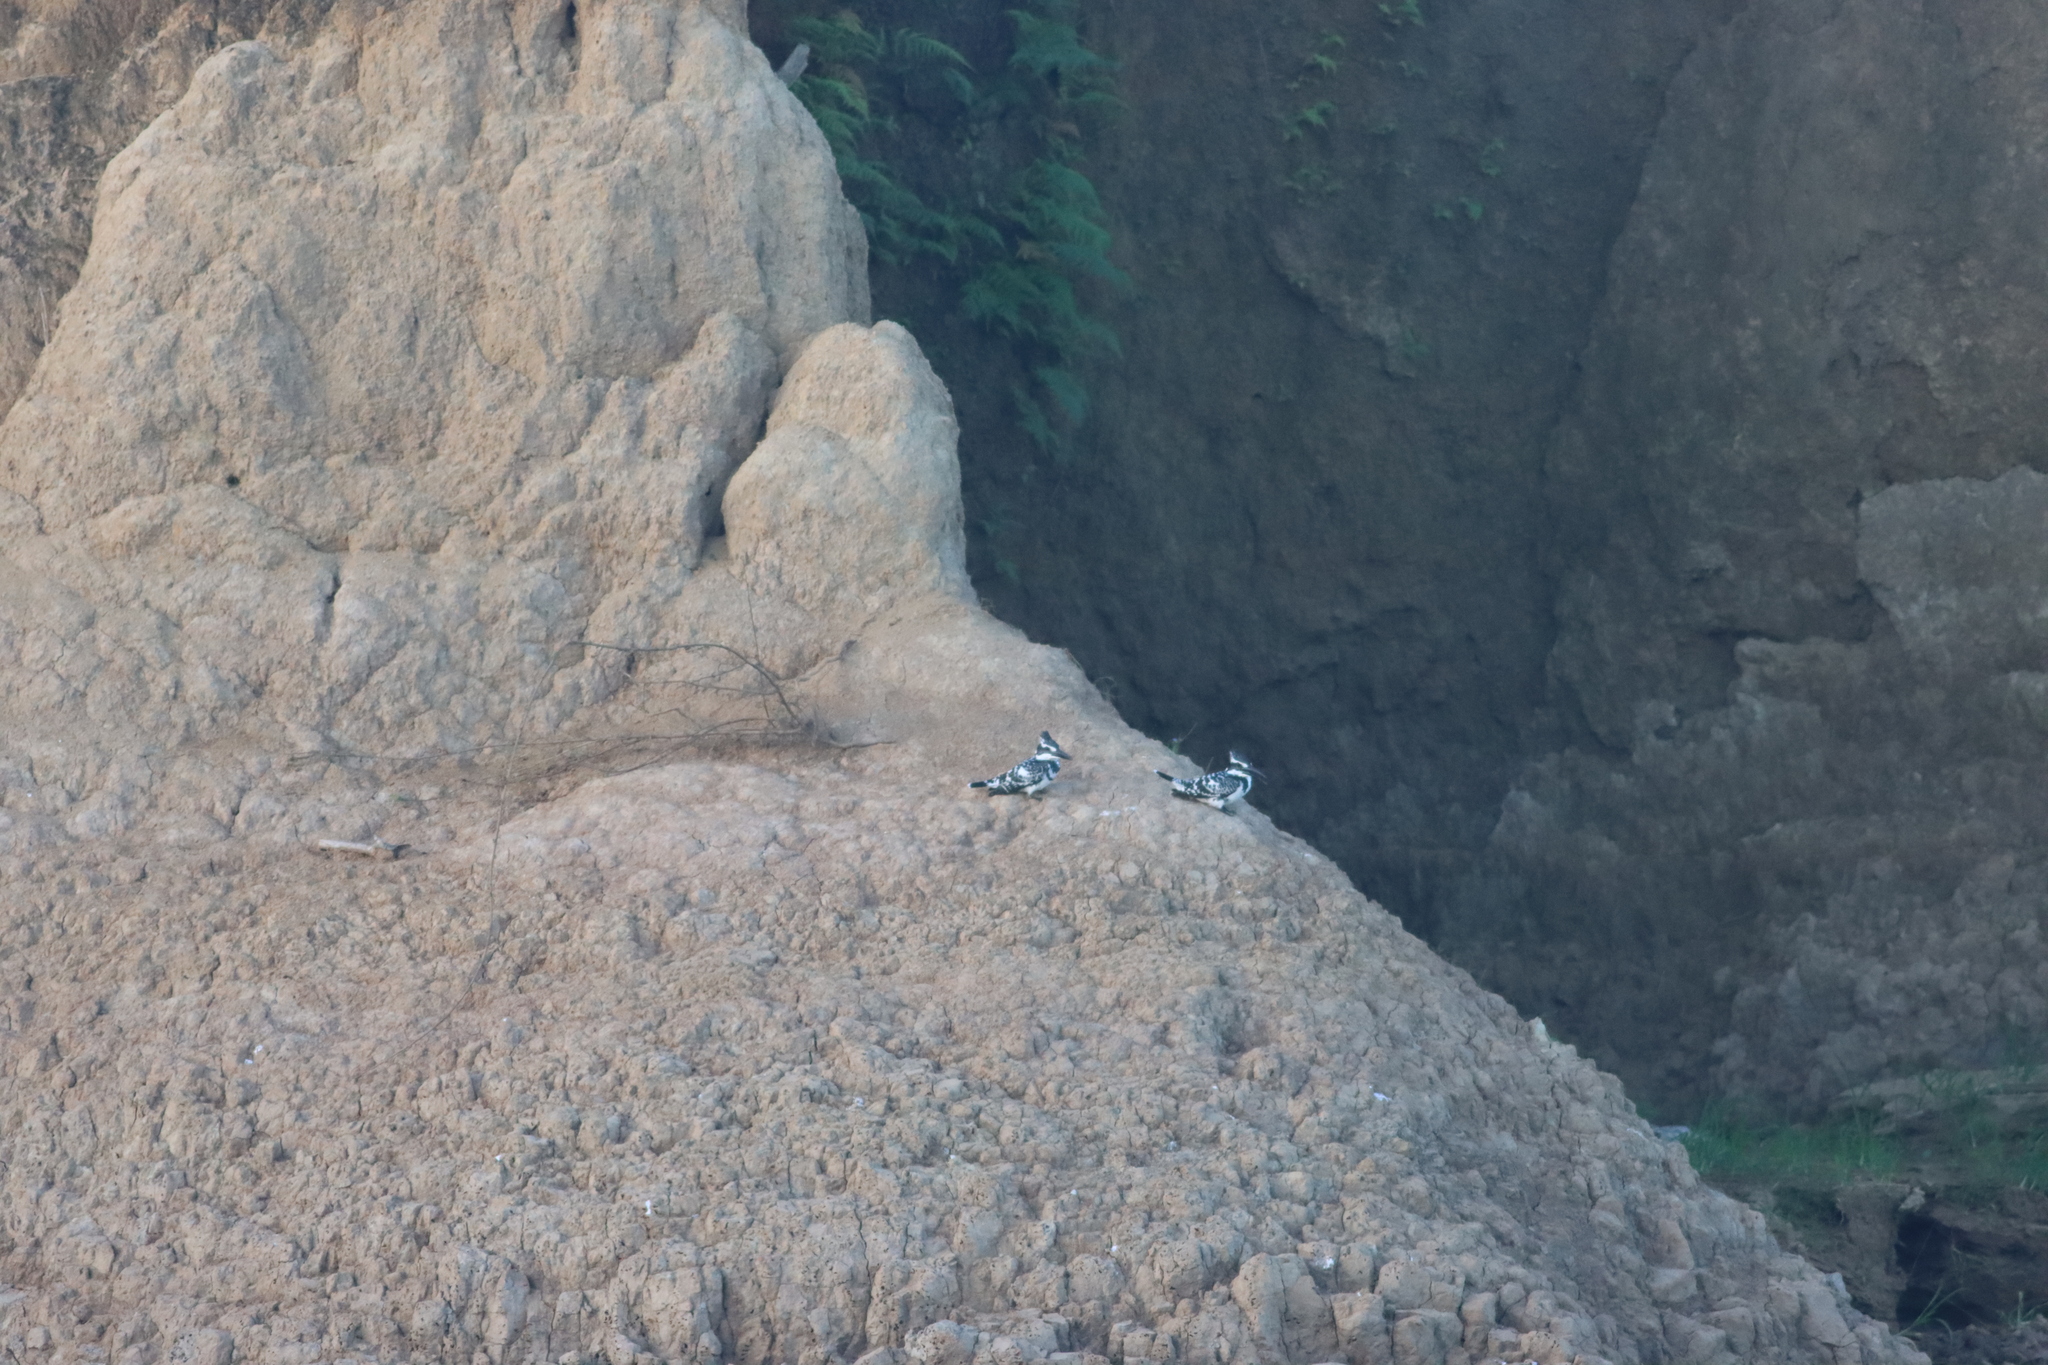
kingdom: Animalia
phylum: Chordata
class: Aves
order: Coraciiformes
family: Alcedinidae
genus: Ceryle
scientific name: Ceryle rudis
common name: Pied kingfisher
